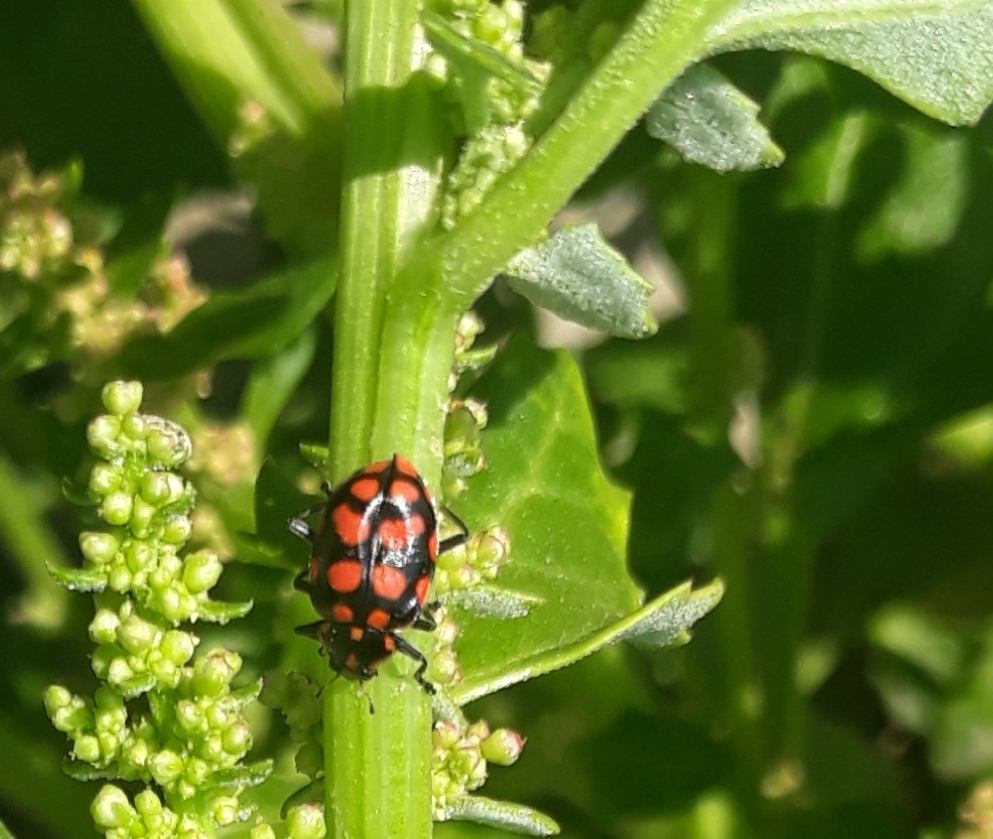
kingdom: Animalia
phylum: Arthropoda
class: Insecta
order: Coleoptera
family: Coccinellidae
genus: Coleomegilla
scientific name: Coleomegilla
